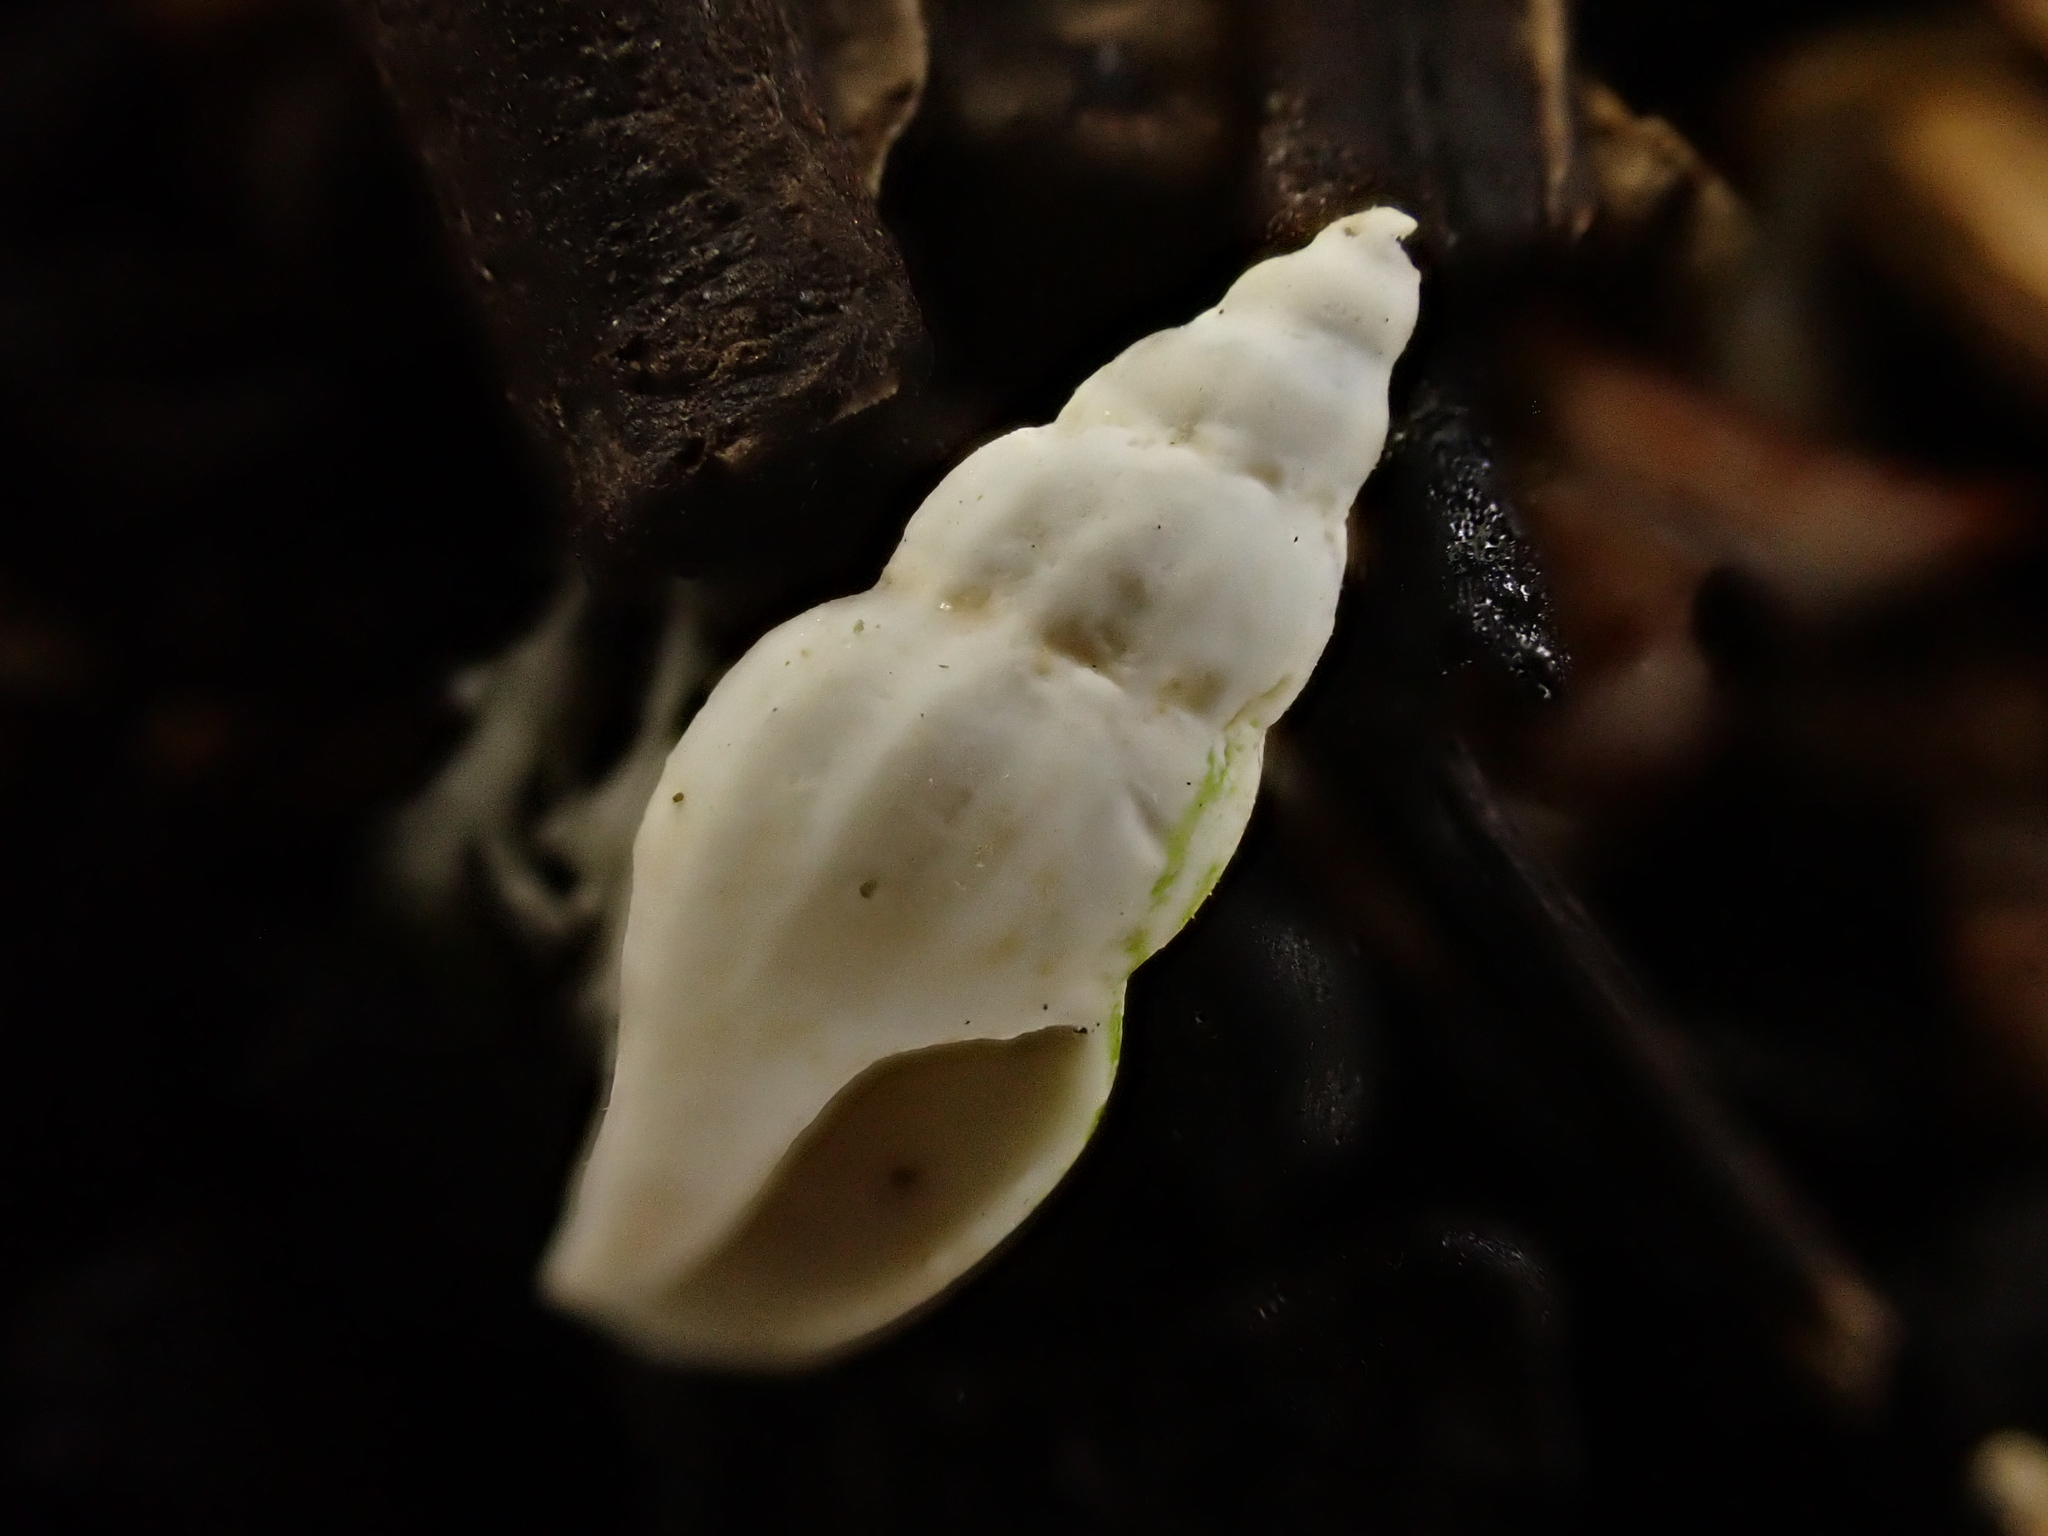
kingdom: Animalia
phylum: Mollusca
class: Gastropoda
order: Neogastropoda
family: Mangeliidae
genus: Neoguraleus
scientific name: Neoguraleus manukauensis
